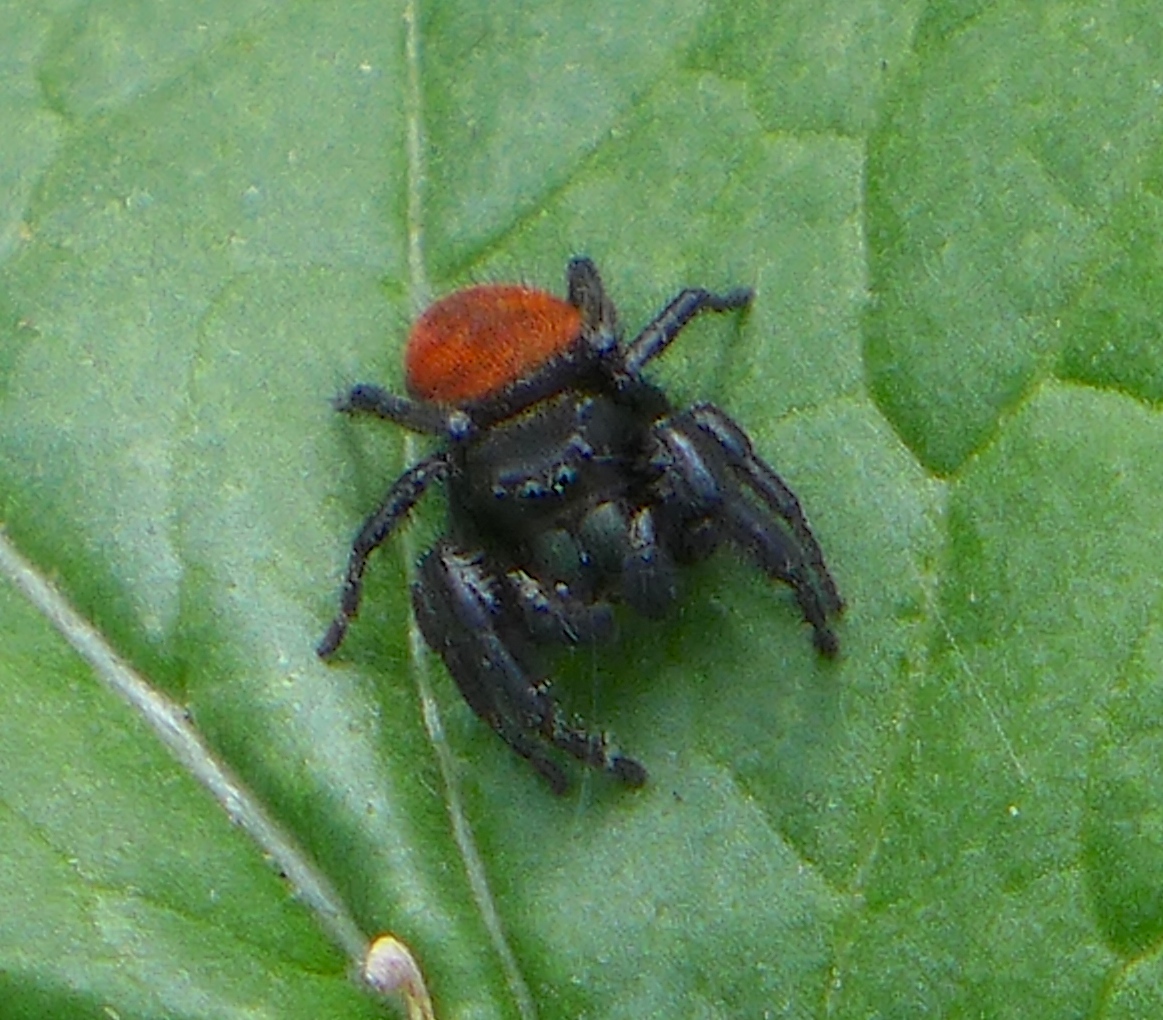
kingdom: Animalia
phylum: Arthropoda
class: Arachnida
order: Araneae
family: Salticidae
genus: Phidippus
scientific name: Phidippus johnsoni
